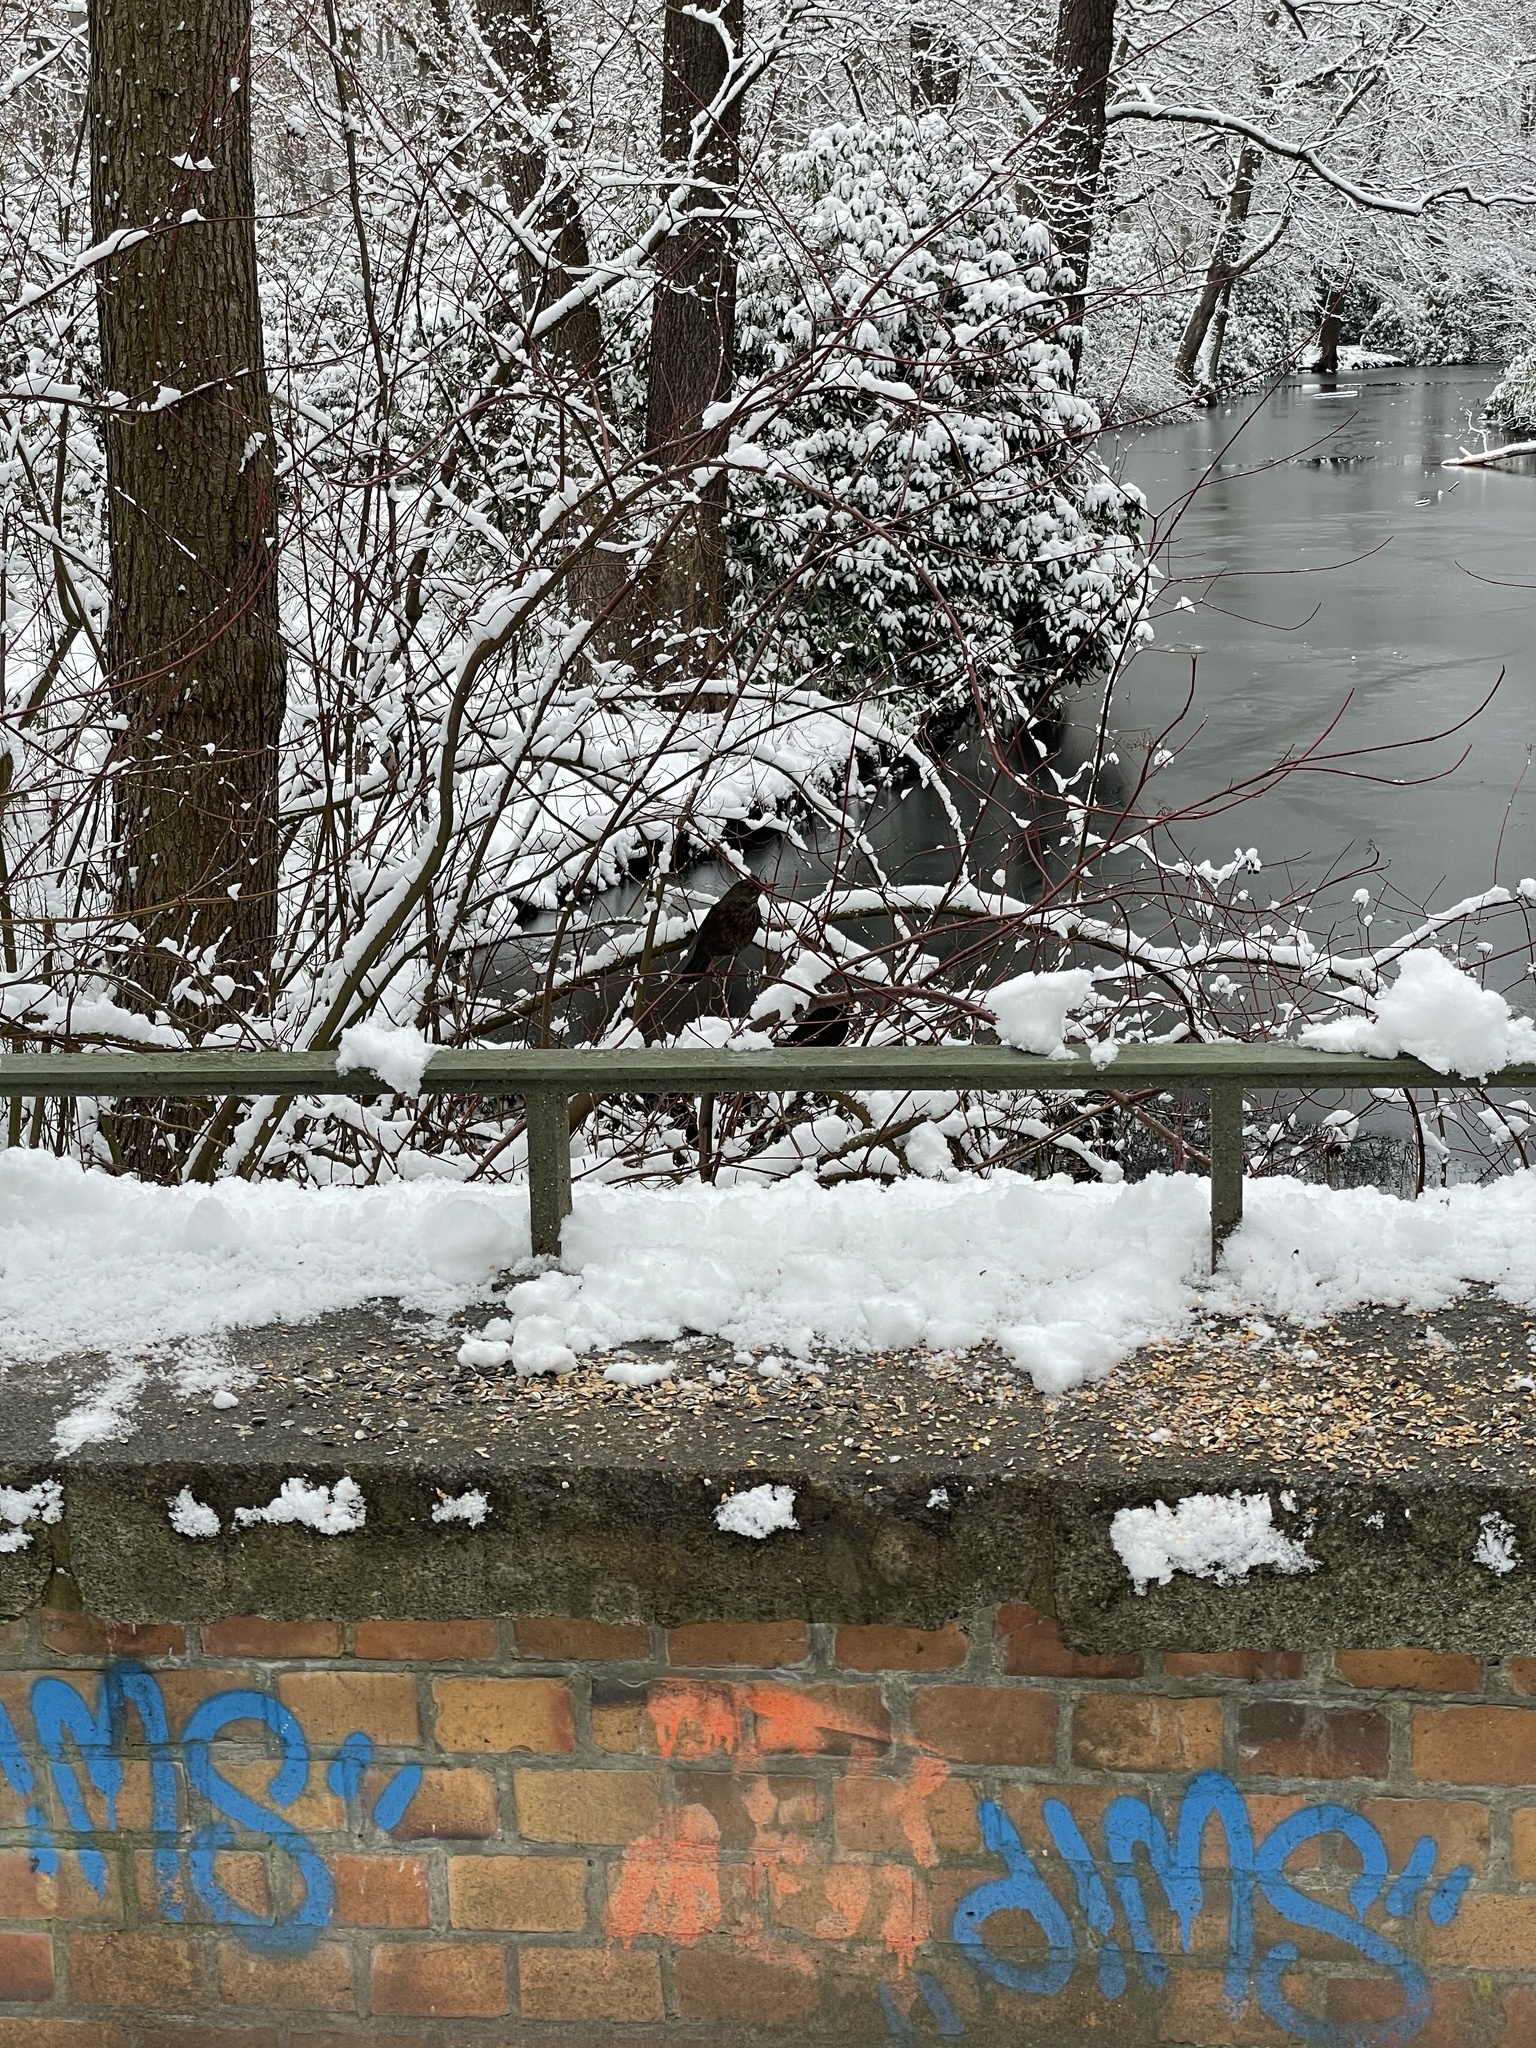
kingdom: Animalia
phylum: Chordata
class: Aves
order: Passeriformes
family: Turdidae
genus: Turdus
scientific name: Turdus merula
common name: Common blackbird
